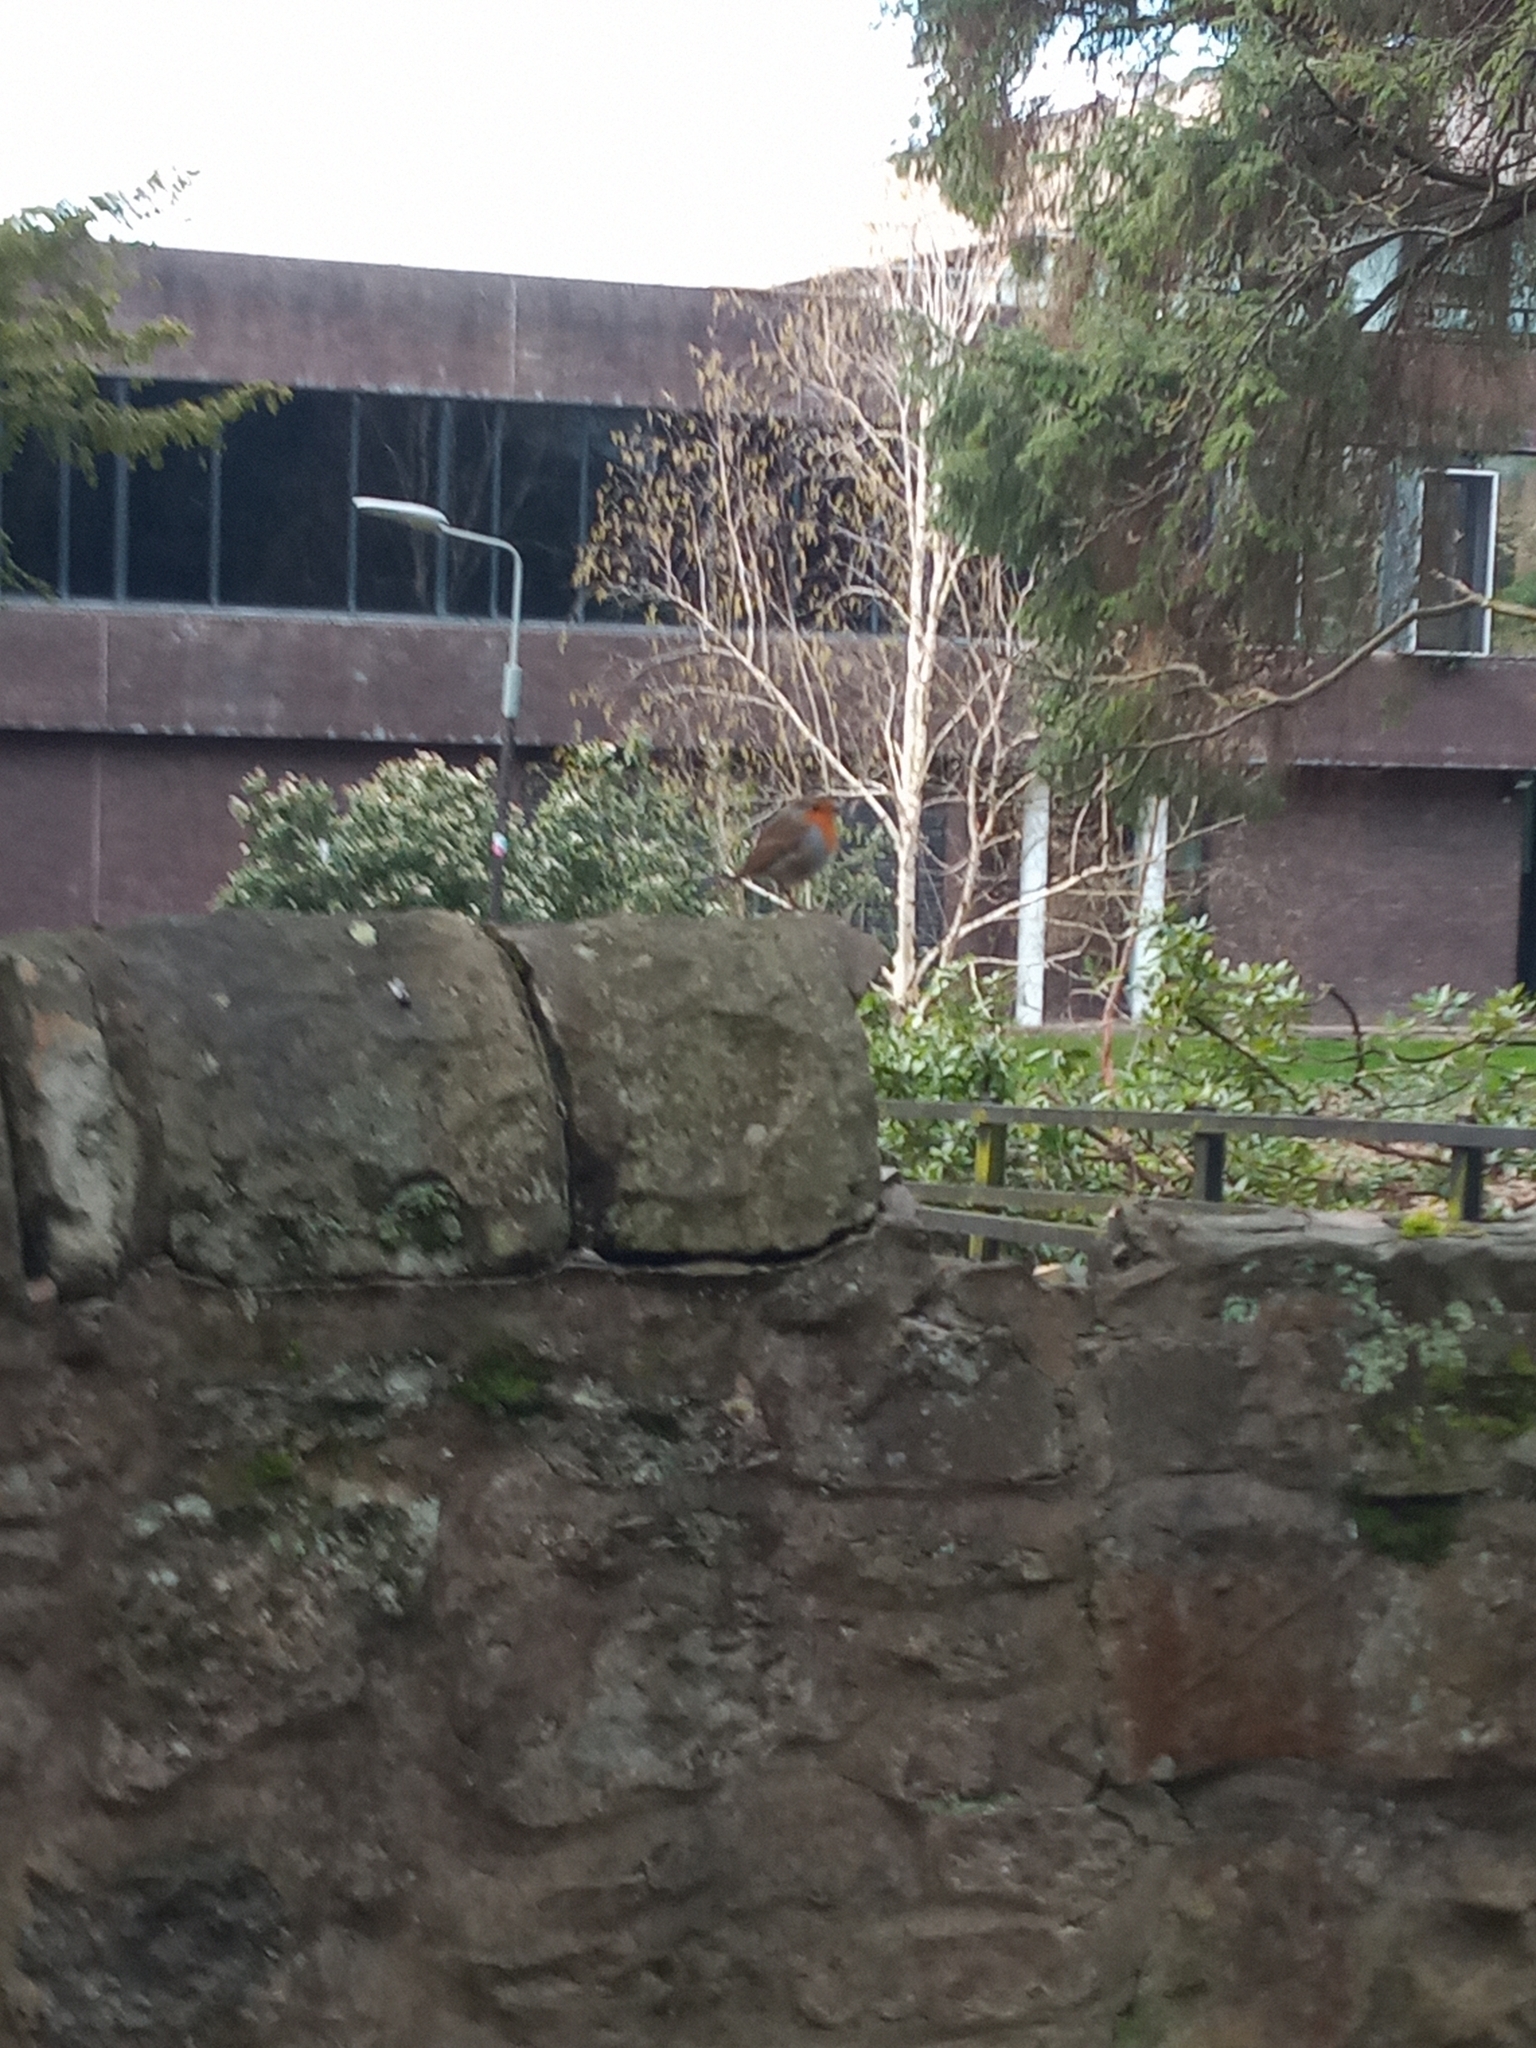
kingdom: Animalia
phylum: Chordata
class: Aves
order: Passeriformes
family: Muscicapidae
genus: Erithacus
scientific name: Erithacus rubecula
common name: European robin
